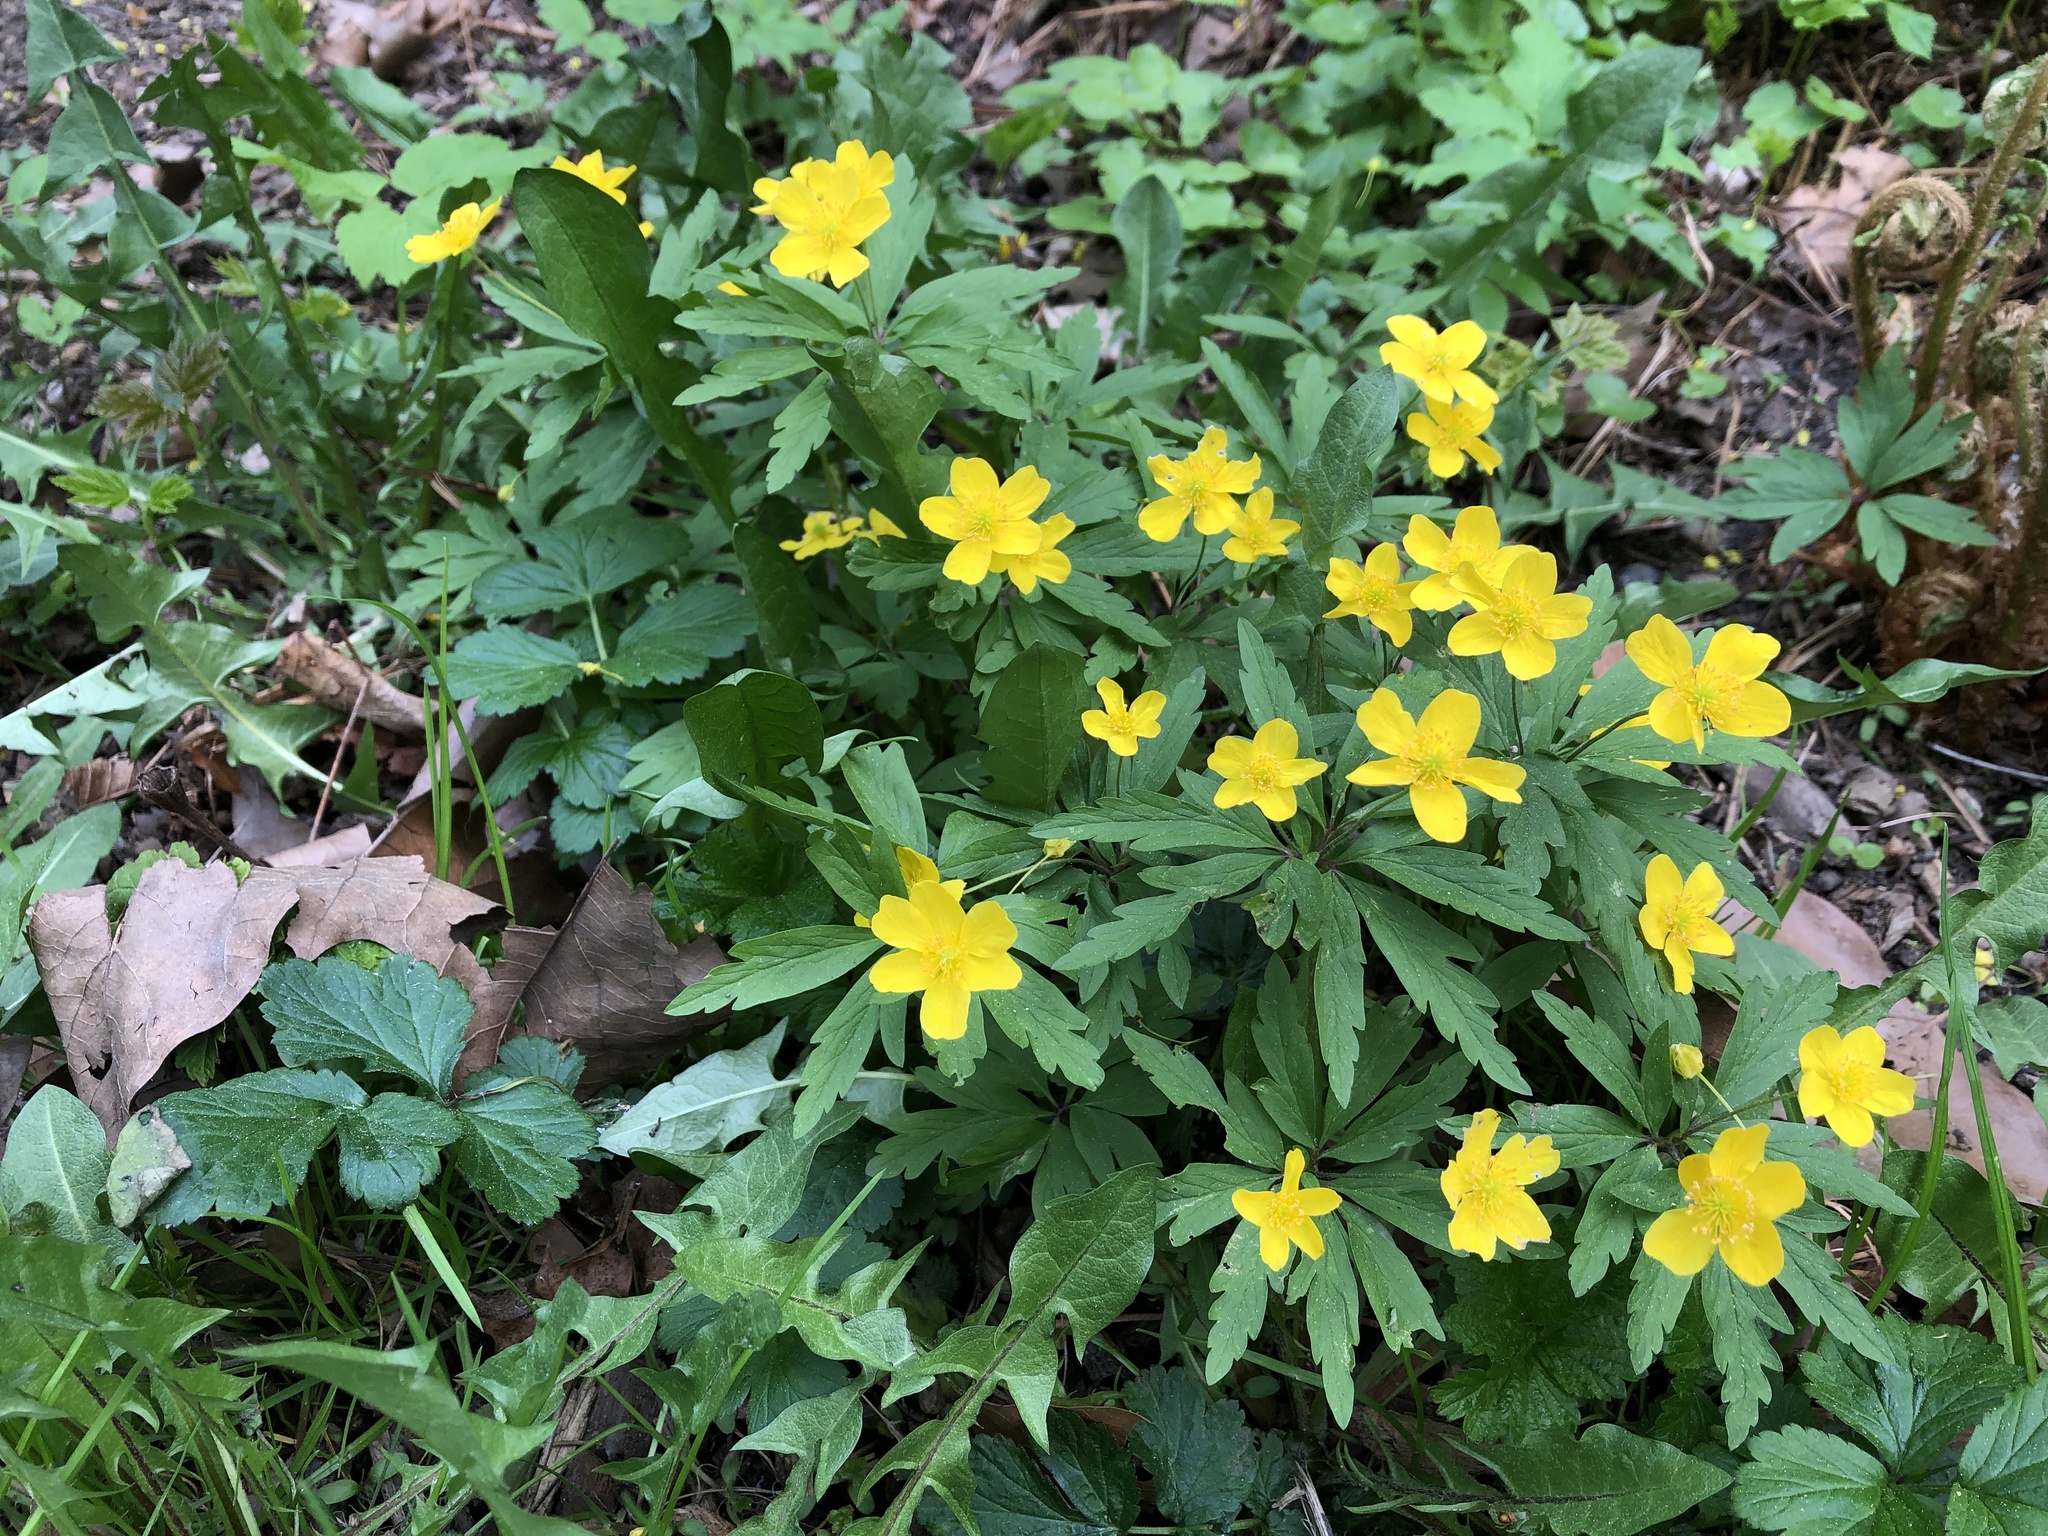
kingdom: Plantae
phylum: Tracheophyta
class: Magnoliopsida
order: Ranunculales
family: Ranunculaceae
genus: Anemone
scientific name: Anemone ranunculoides
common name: Yellow anemone
